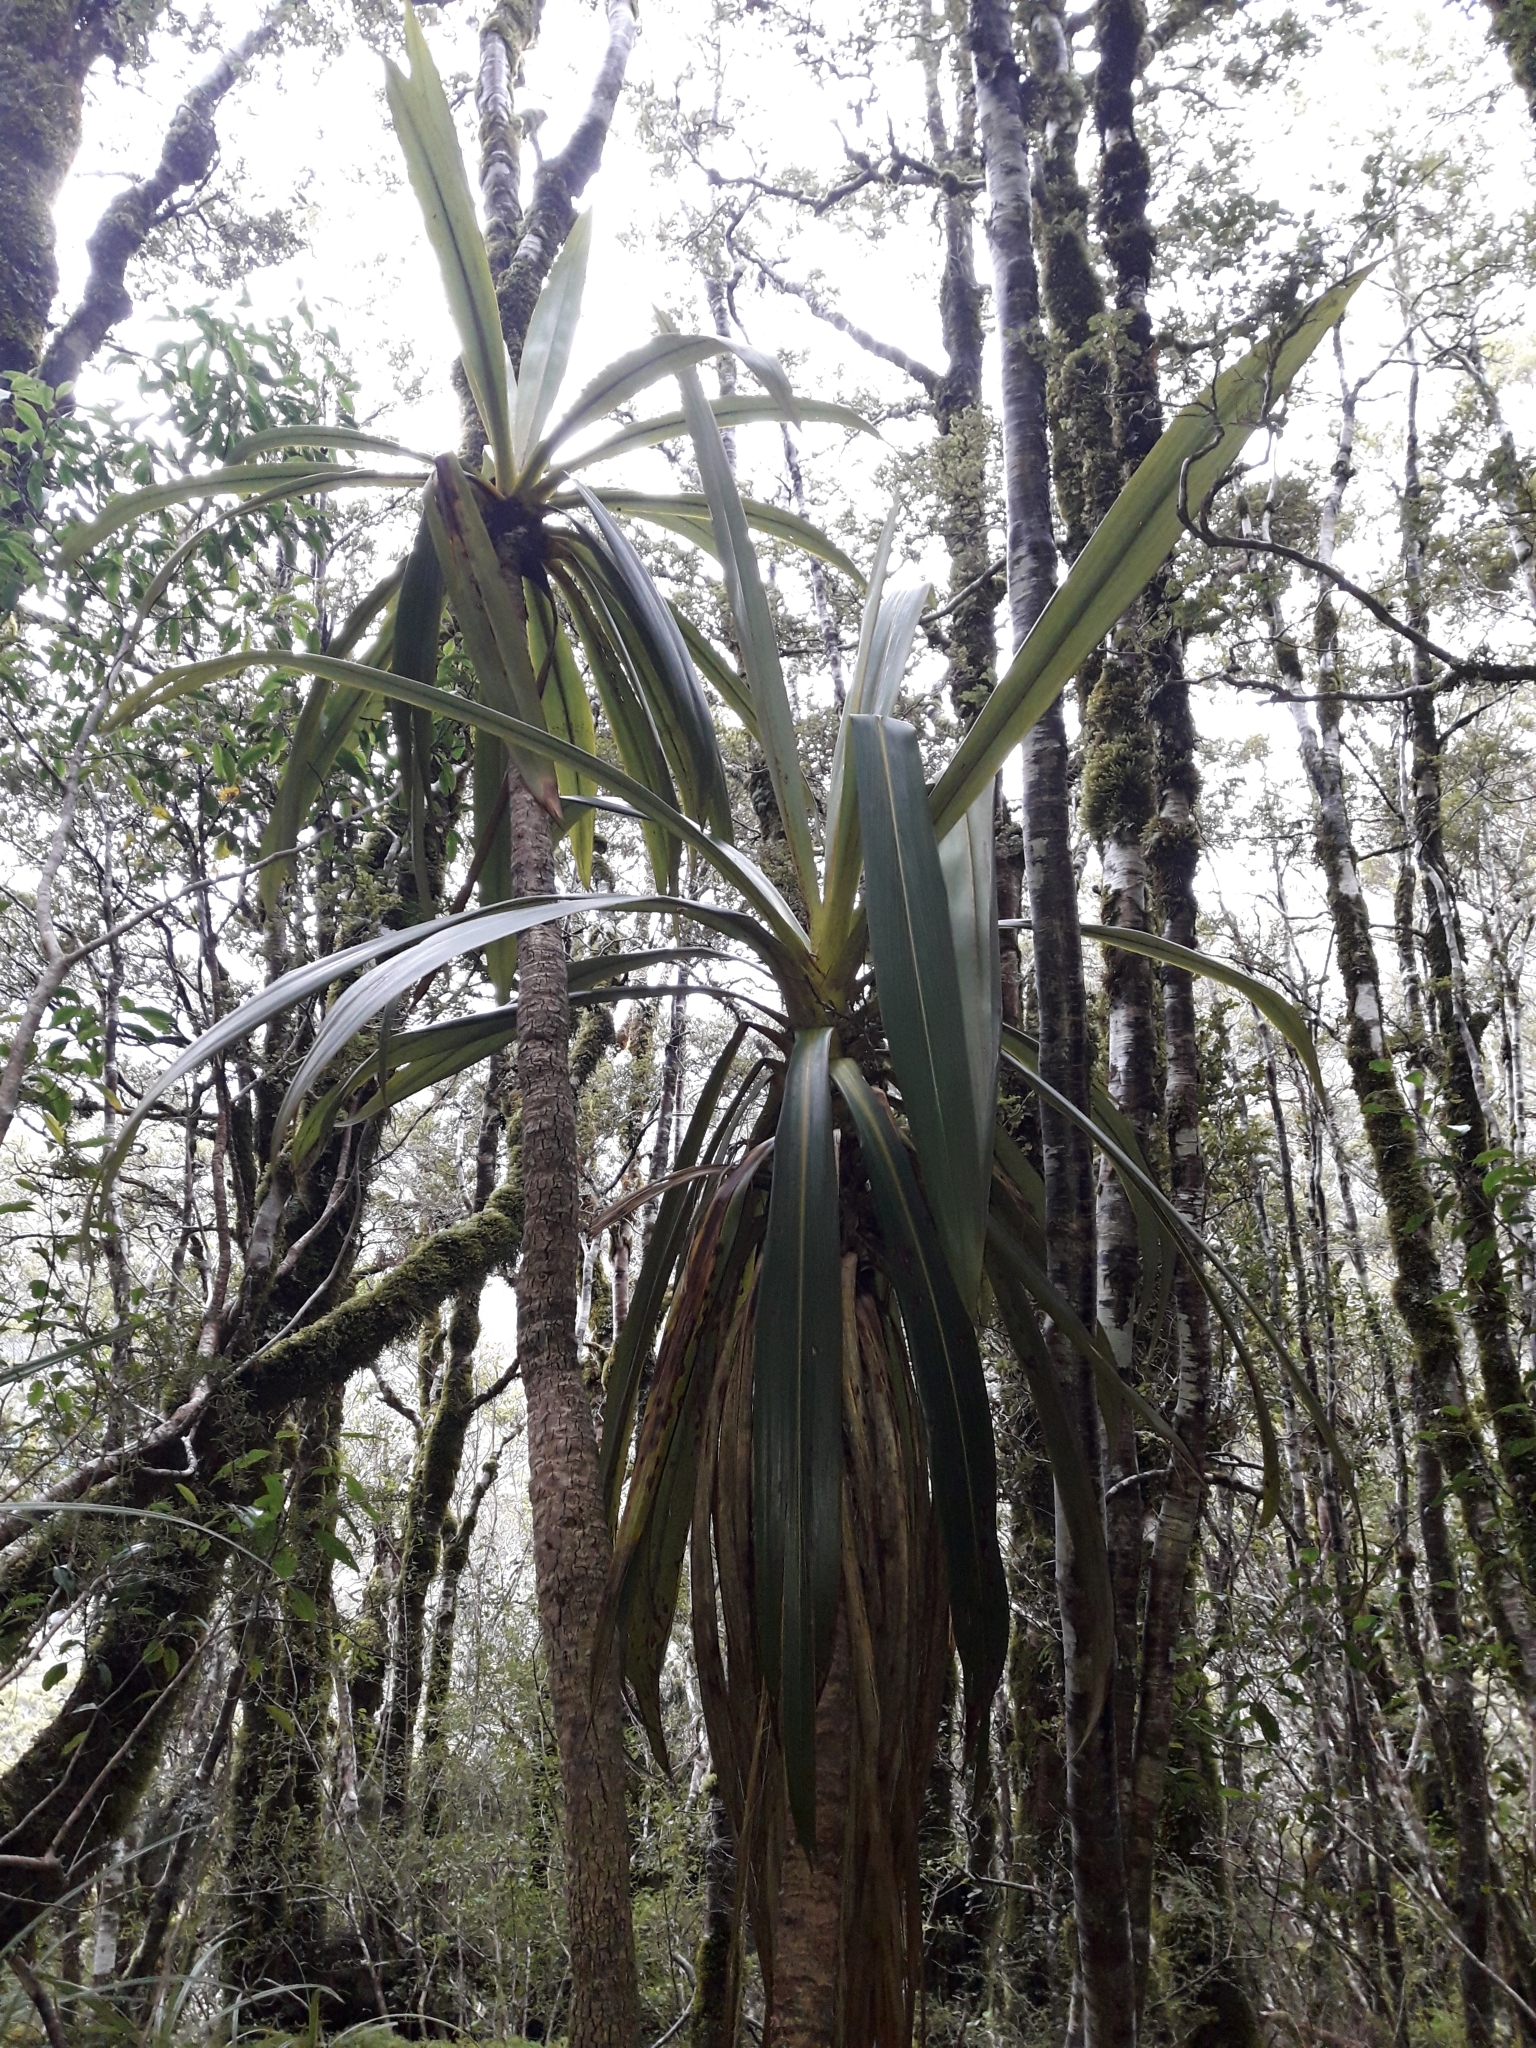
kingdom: Plantae
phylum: Tracheophyta
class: Liliopsida
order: Asparagales
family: Asparagaceae
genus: Cordyline
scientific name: Cordyline indivisa
